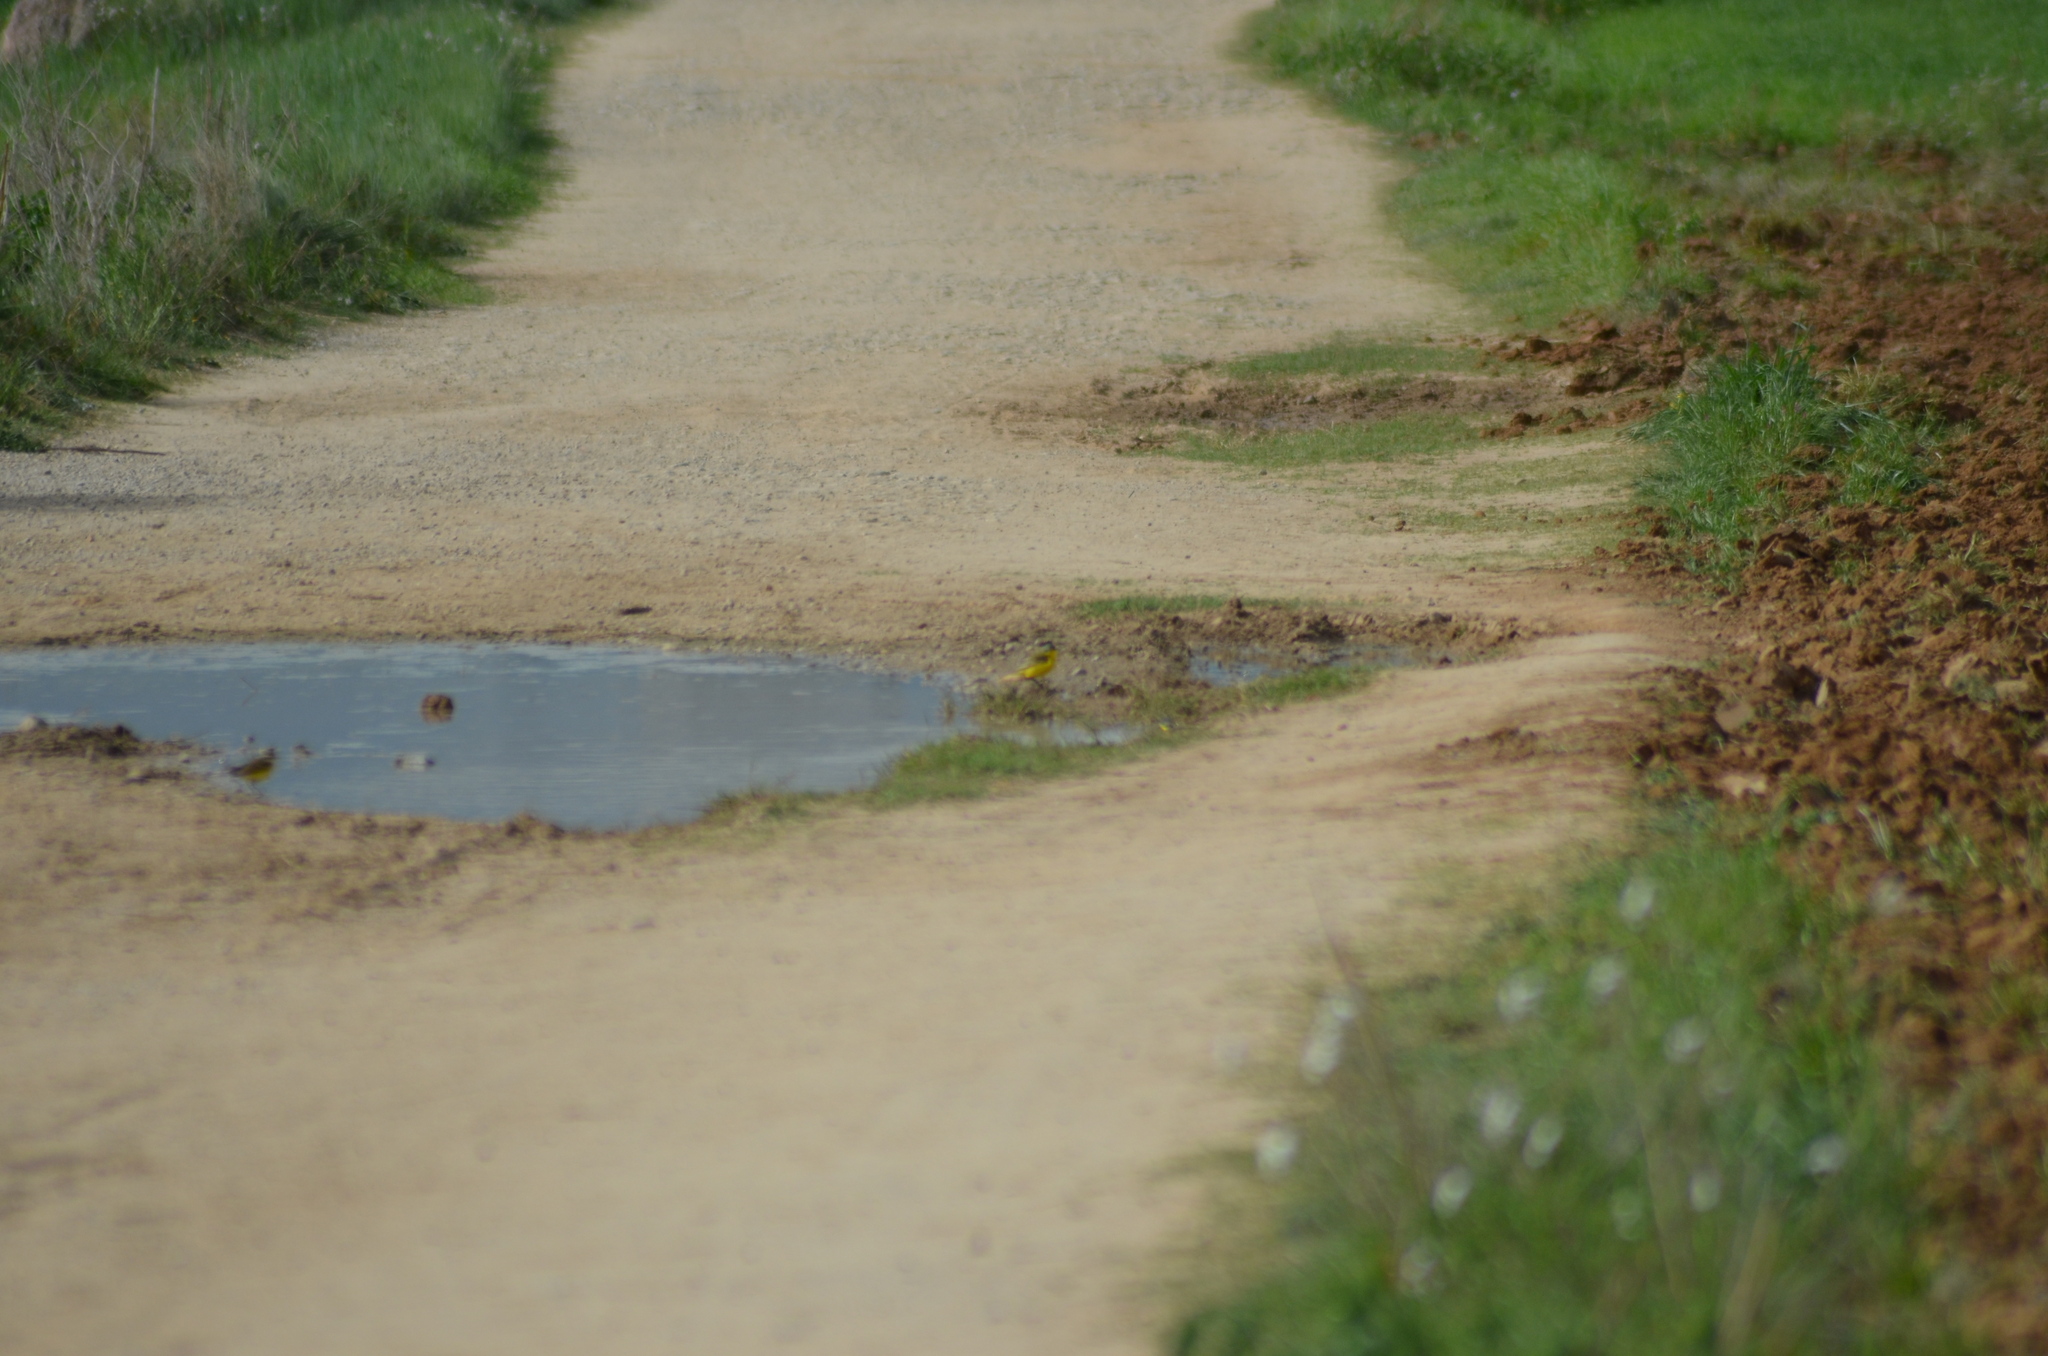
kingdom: Animalia
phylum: Chordata
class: Aves
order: Passeriformes
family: Motacillidae
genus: Motacilla
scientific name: Motacilla flava
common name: Western yellow wagtail
